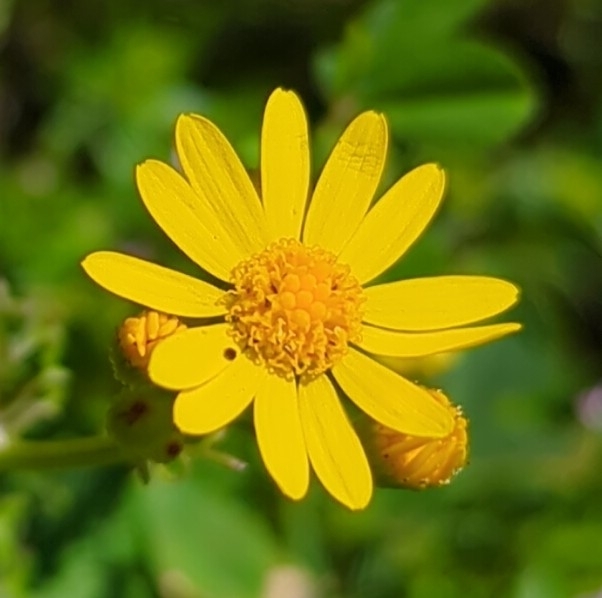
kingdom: Plantae
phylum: Tracheophyta
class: Magnoliopsida
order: Asterales
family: Asteraceae
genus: Packera
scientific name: Packera tampicana
